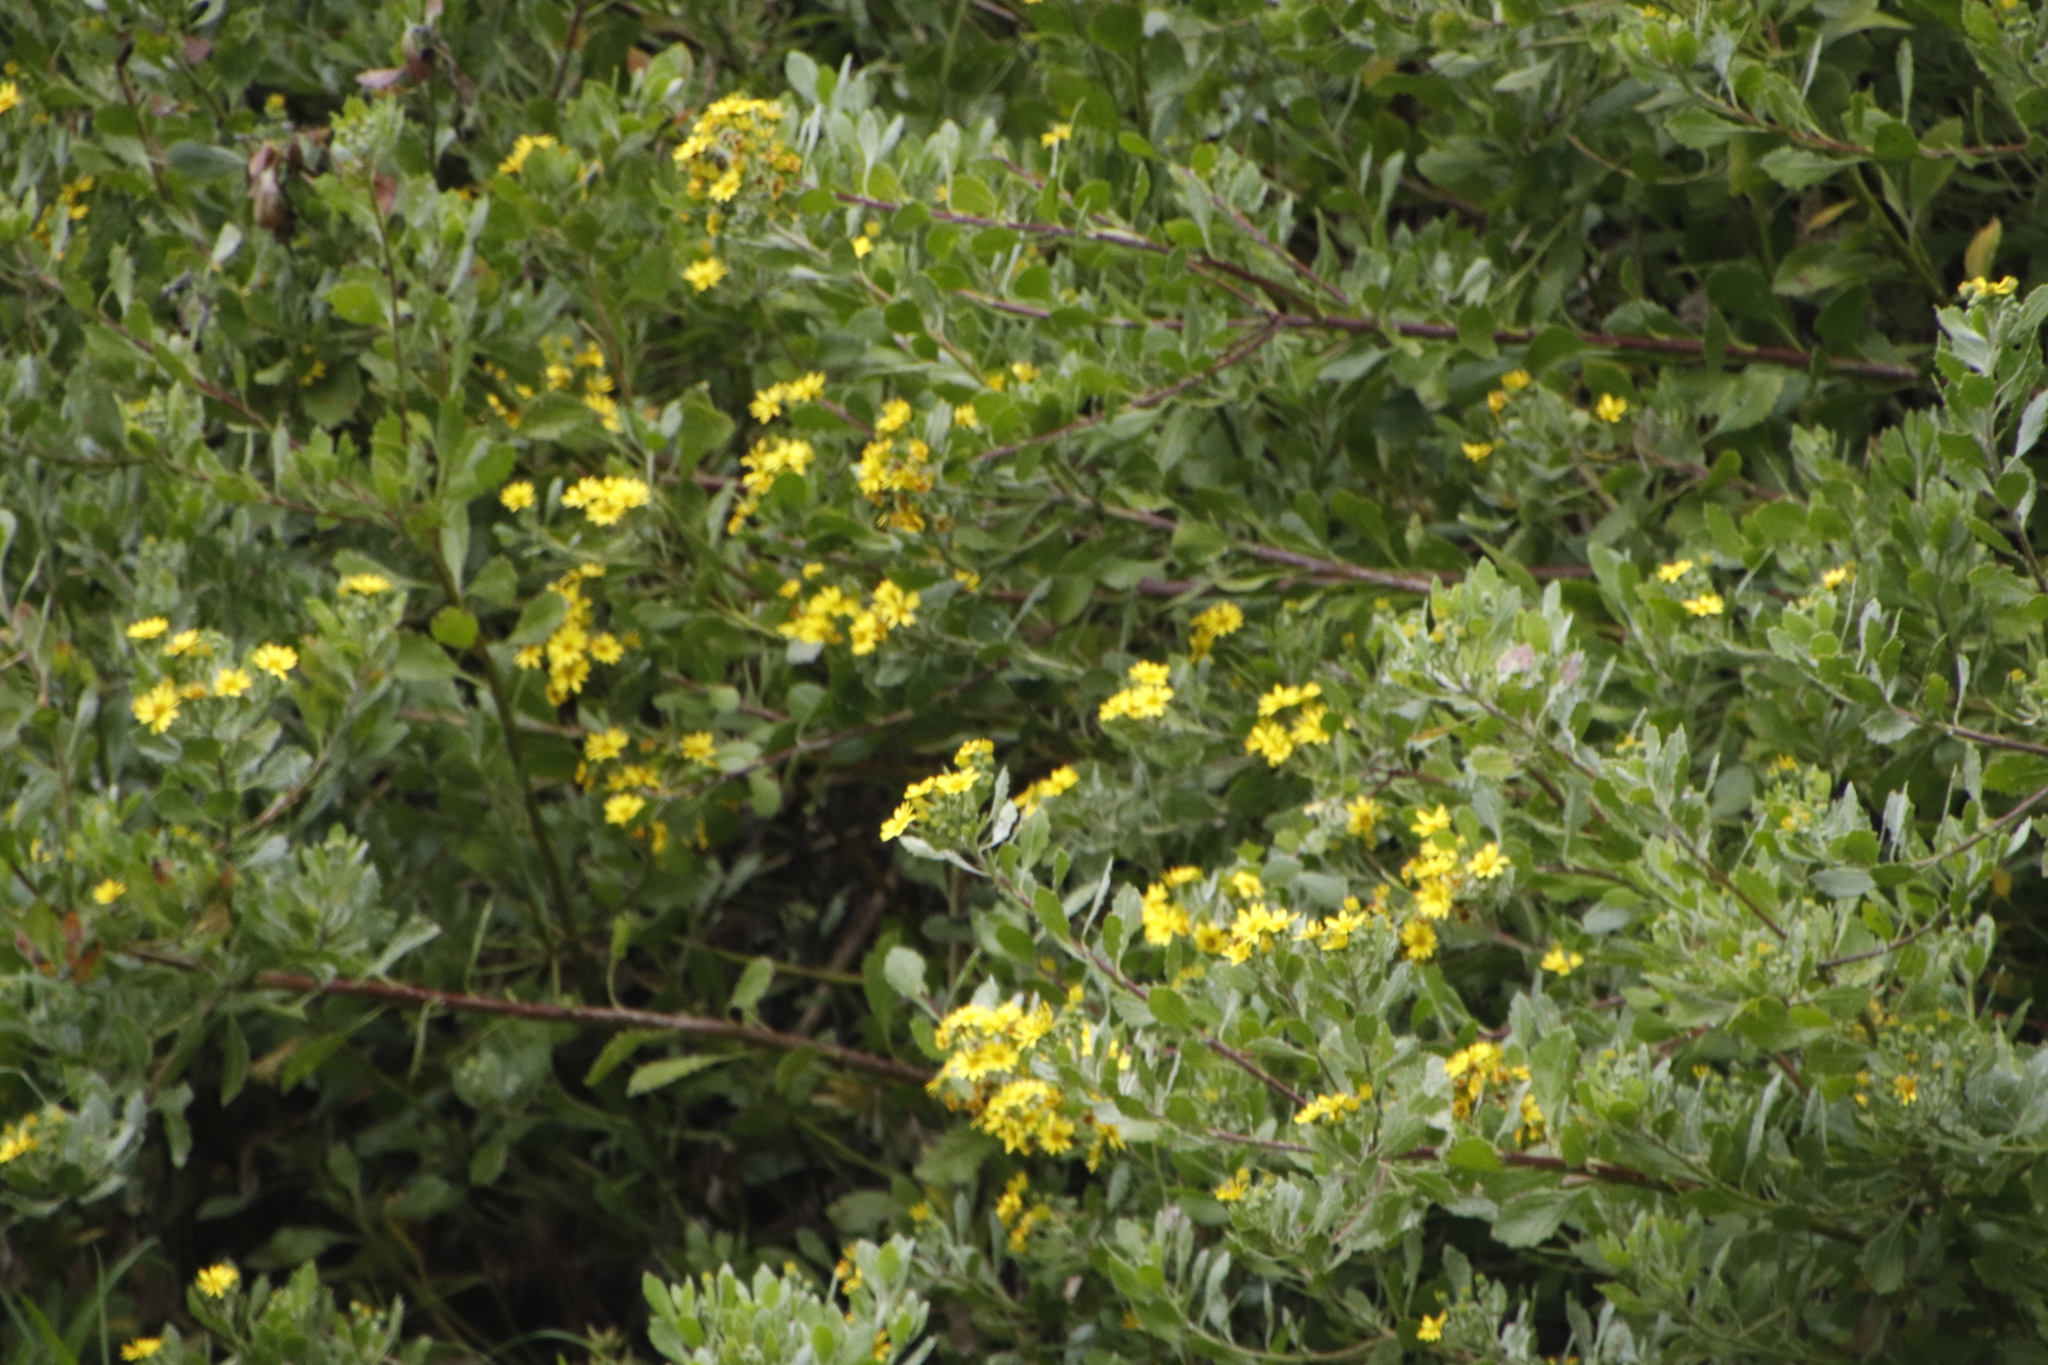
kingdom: Plantae
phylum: Tracheophyta
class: Magnoliopsida
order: Asterales
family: Asteraceae
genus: Osteospermum
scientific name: Osteospermum moniliferum
